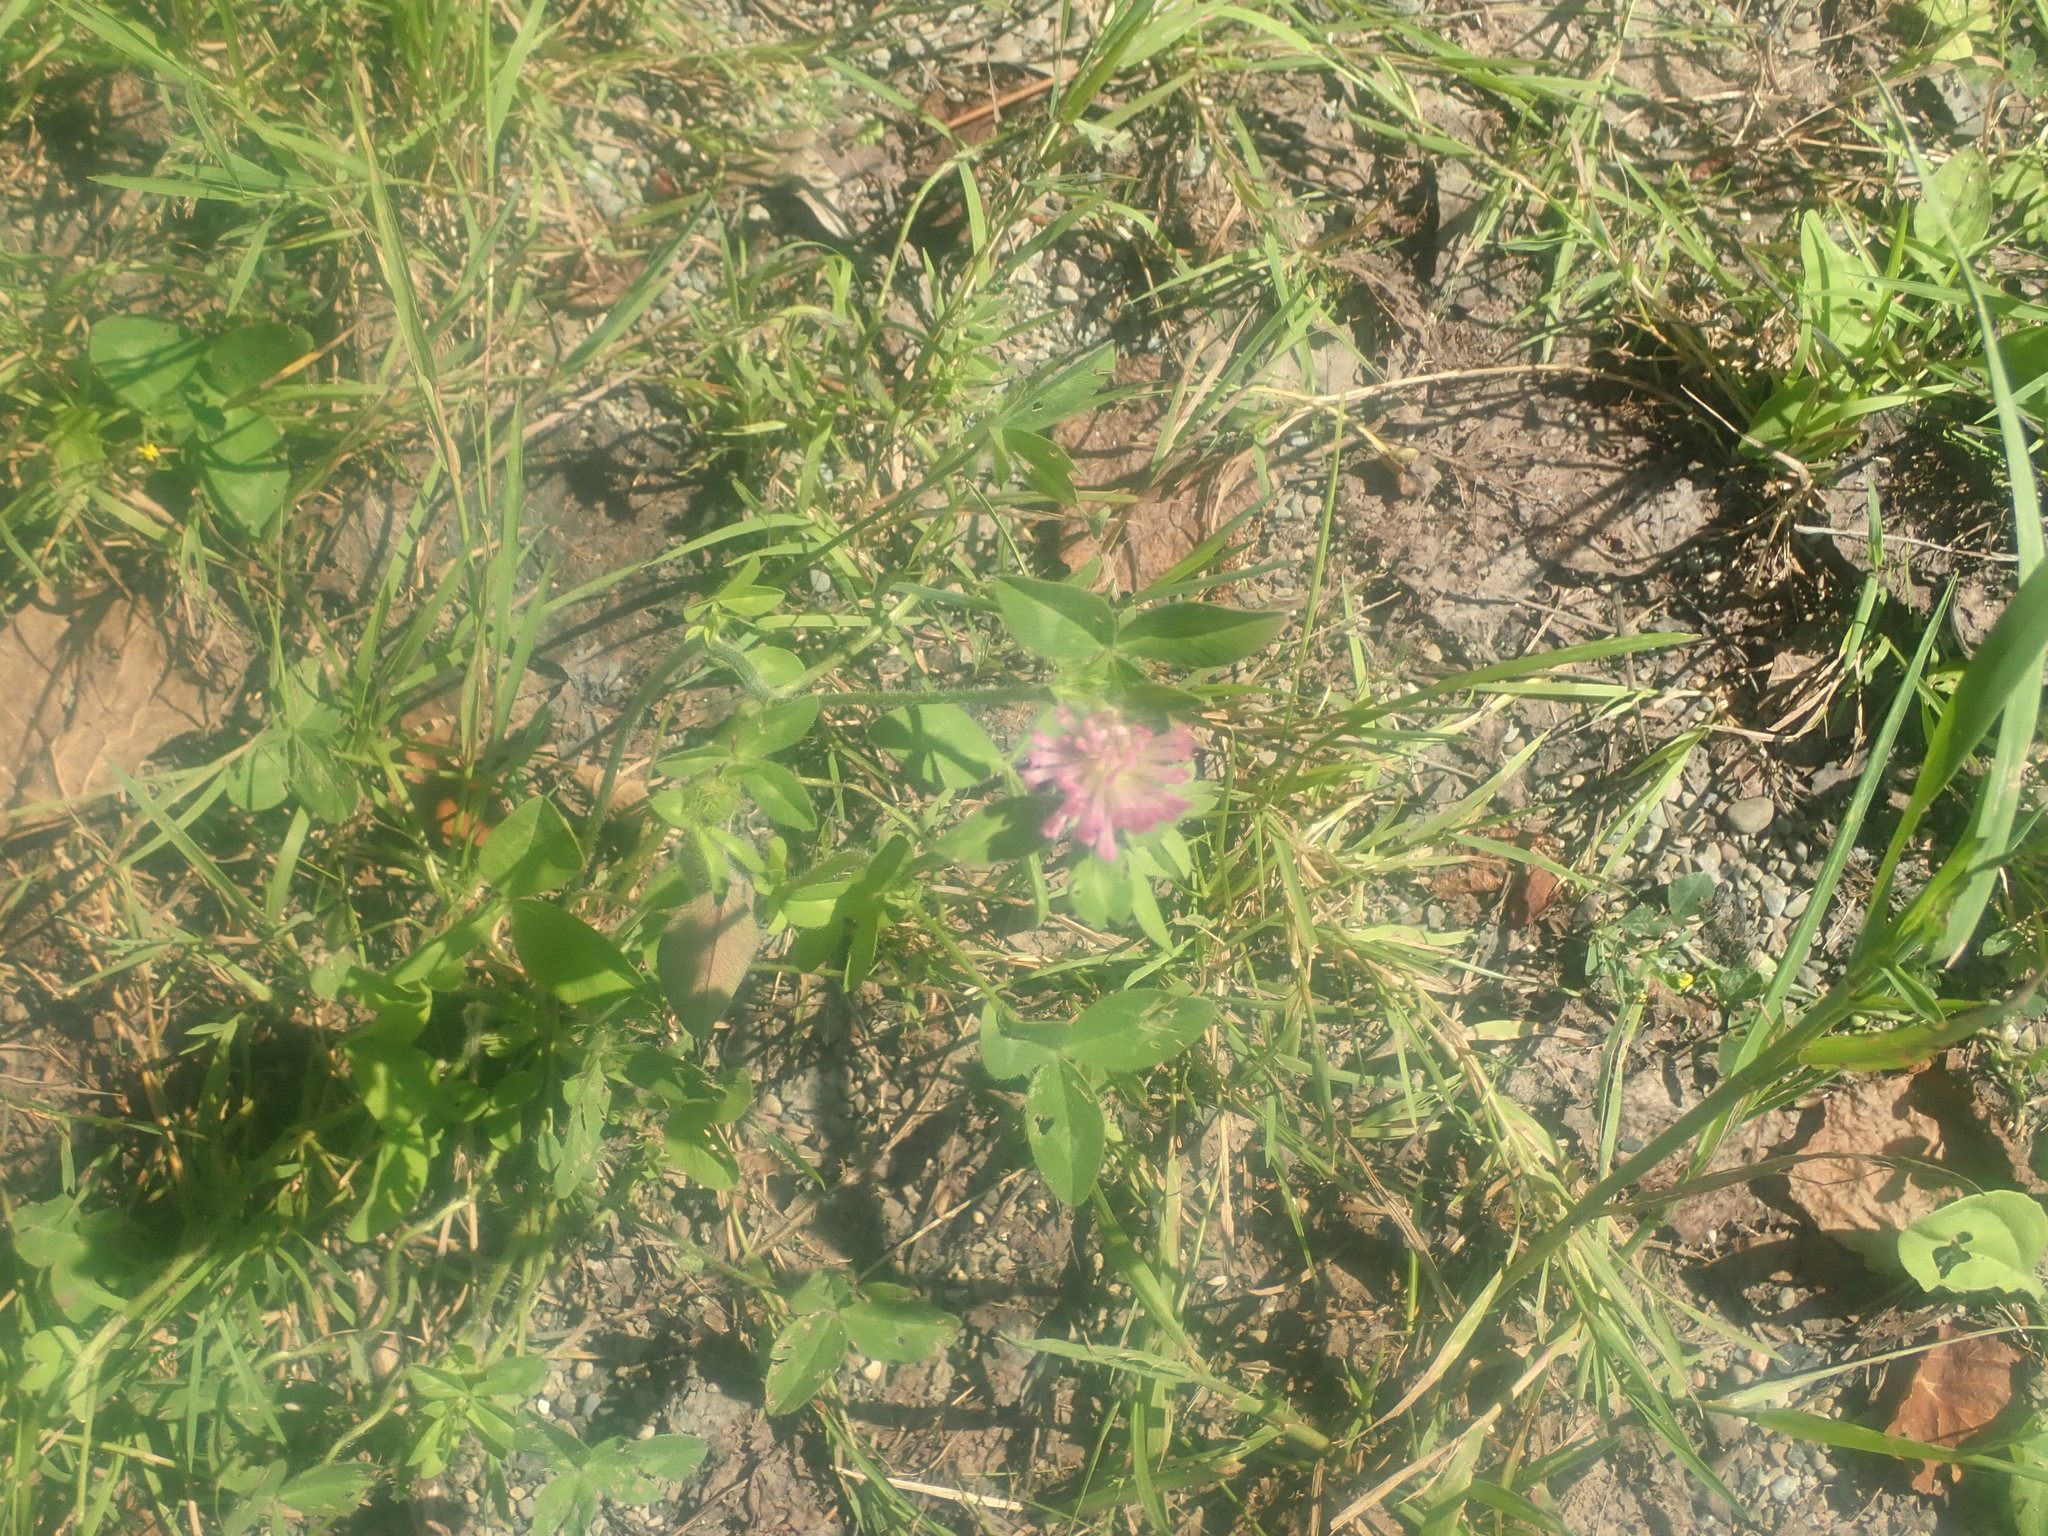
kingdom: Plantae
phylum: Tracheophyta
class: Magnoliopsida
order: Fabales
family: Fabaceae
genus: Trifolium
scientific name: Trifolium pratense
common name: Red clover
